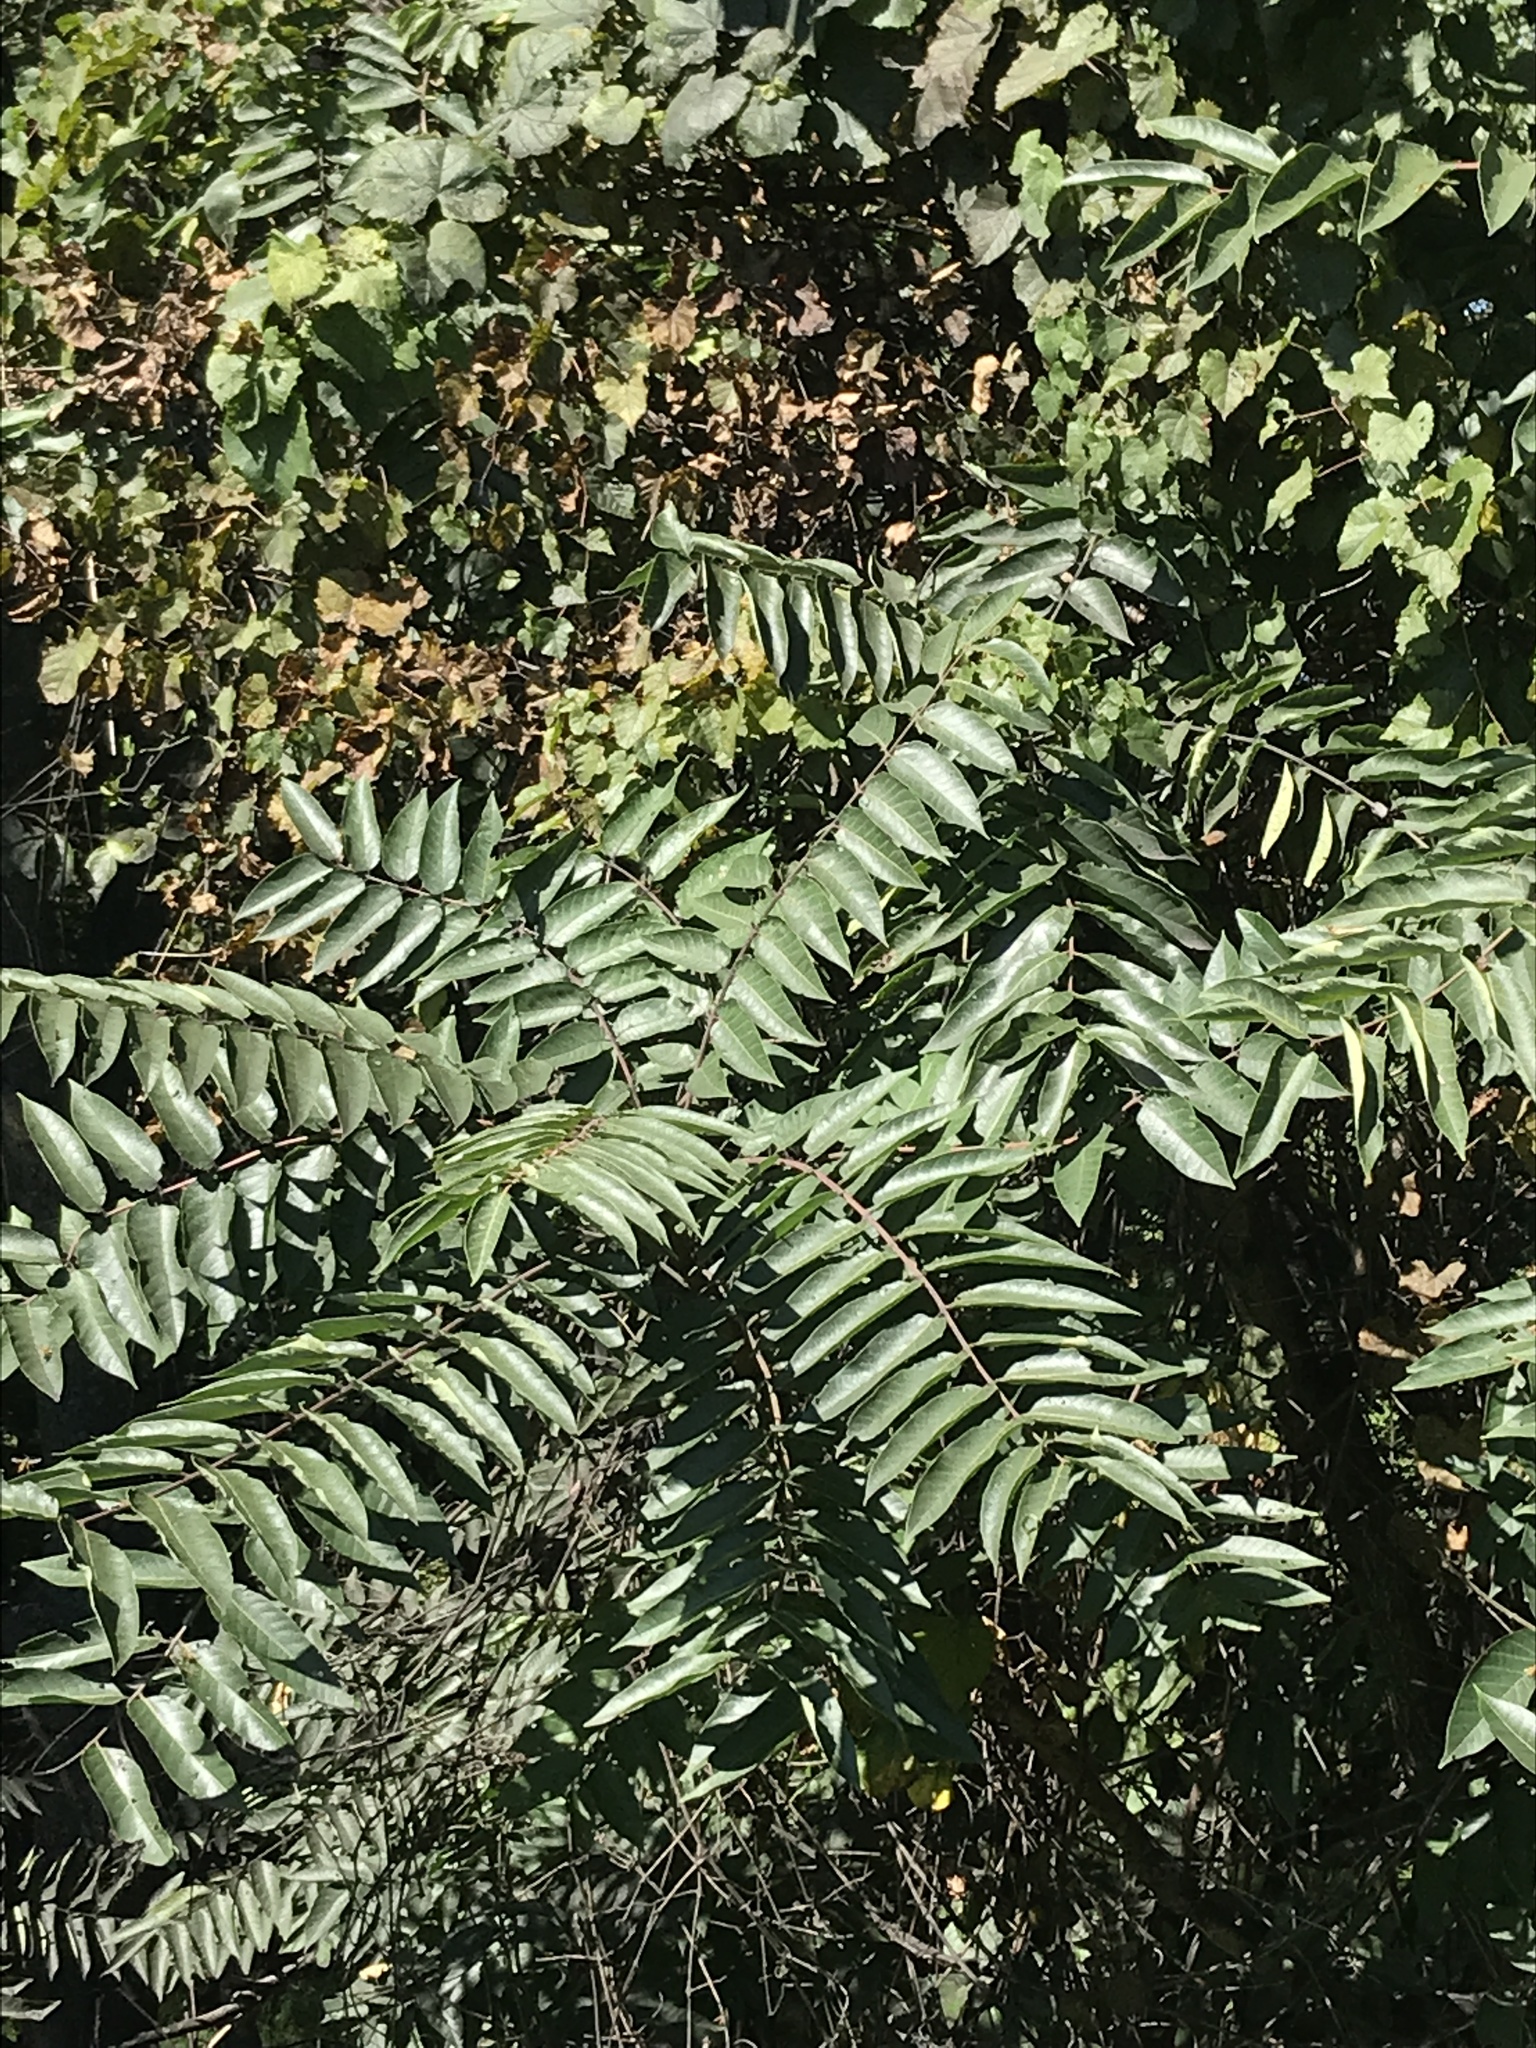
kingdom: Plantae
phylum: Tracheophyta
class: Magnoliopsida
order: Sapindales
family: Simaroubaceae
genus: Ailanthus
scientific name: Ailanthus altissima
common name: Tree-of-heaven
